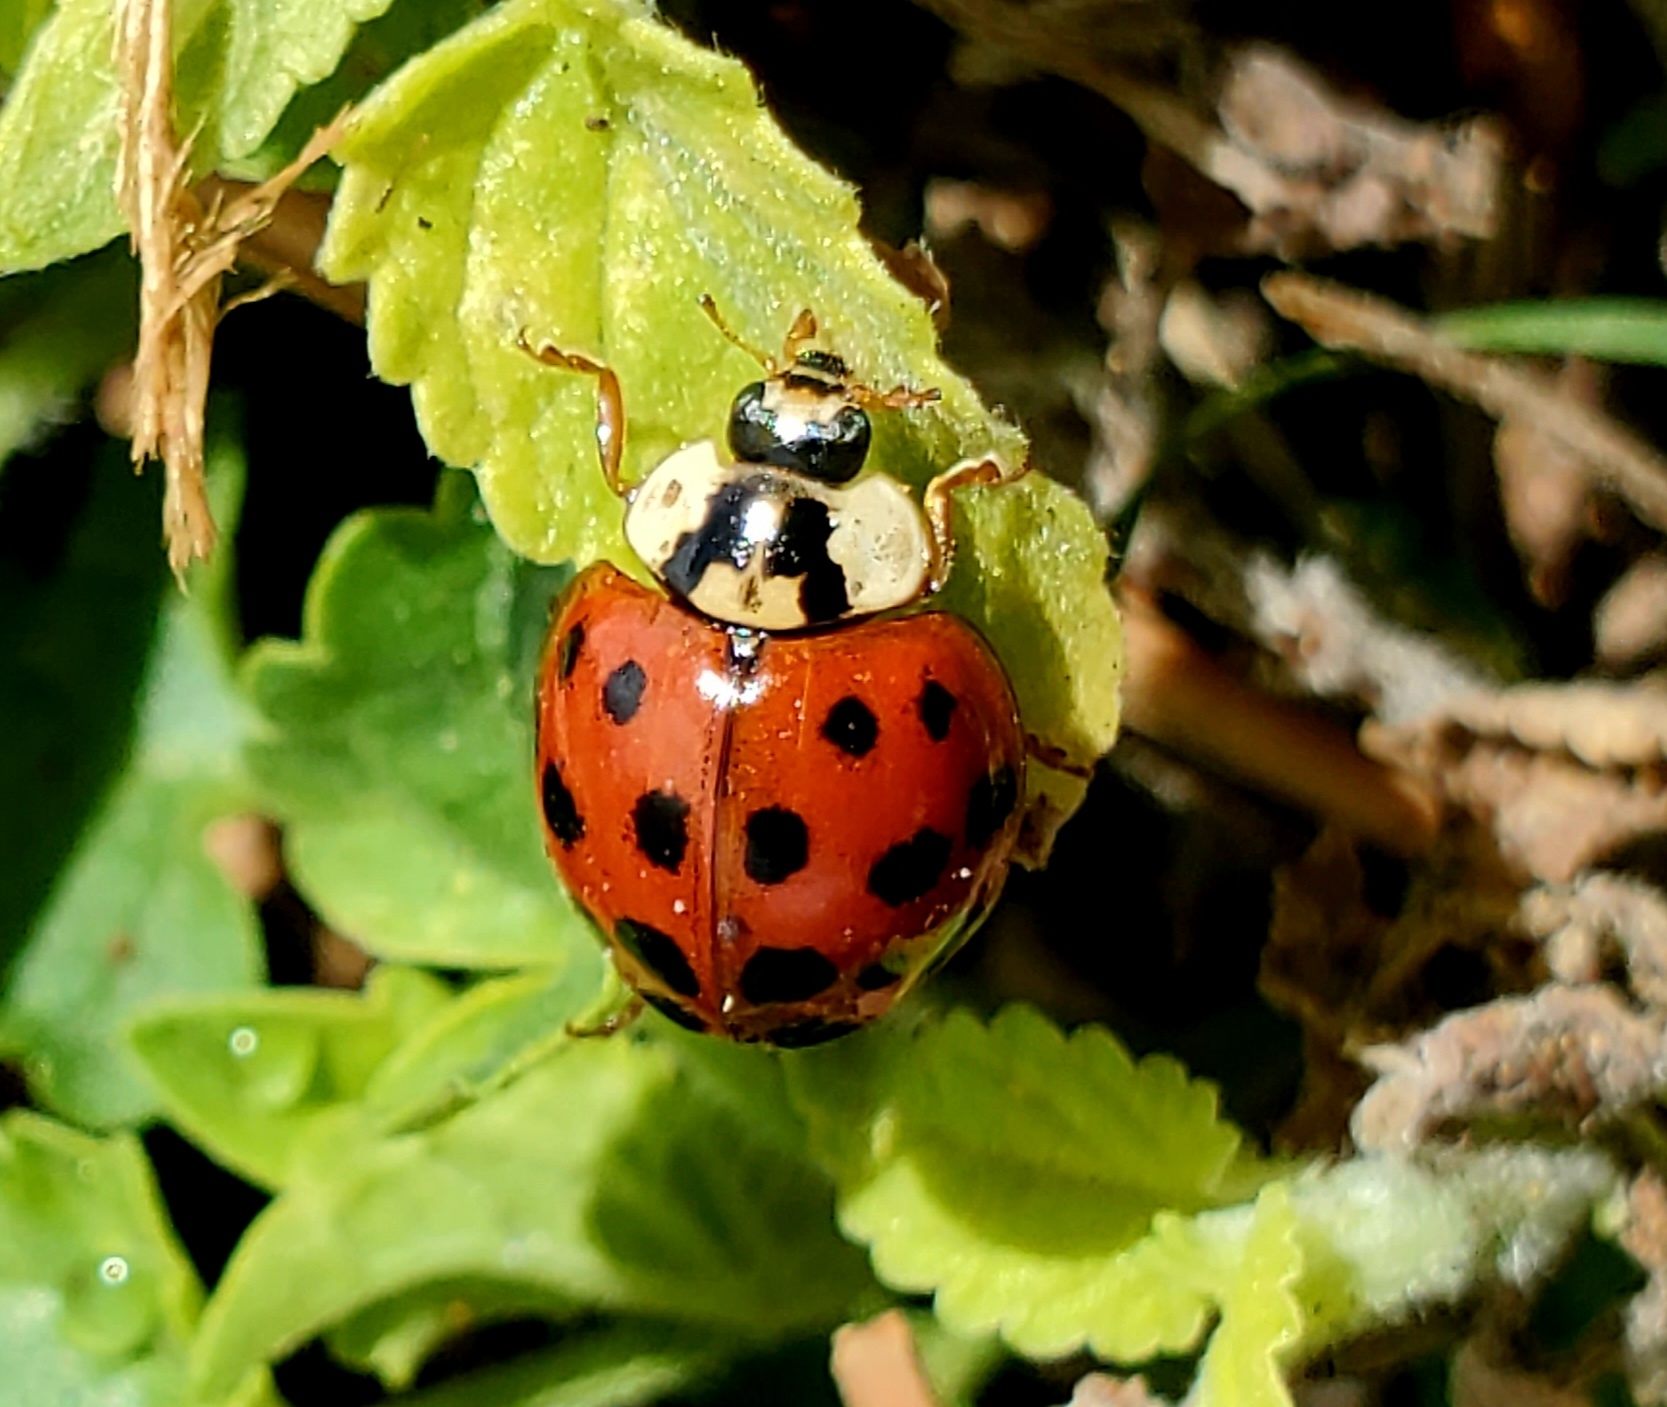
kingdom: Animalia
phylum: Arthropoda
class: Insecta
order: Coleoptera
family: Coccinellidae
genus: Harmonia
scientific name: Harmonia axyridis
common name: Harlequin ladybird
